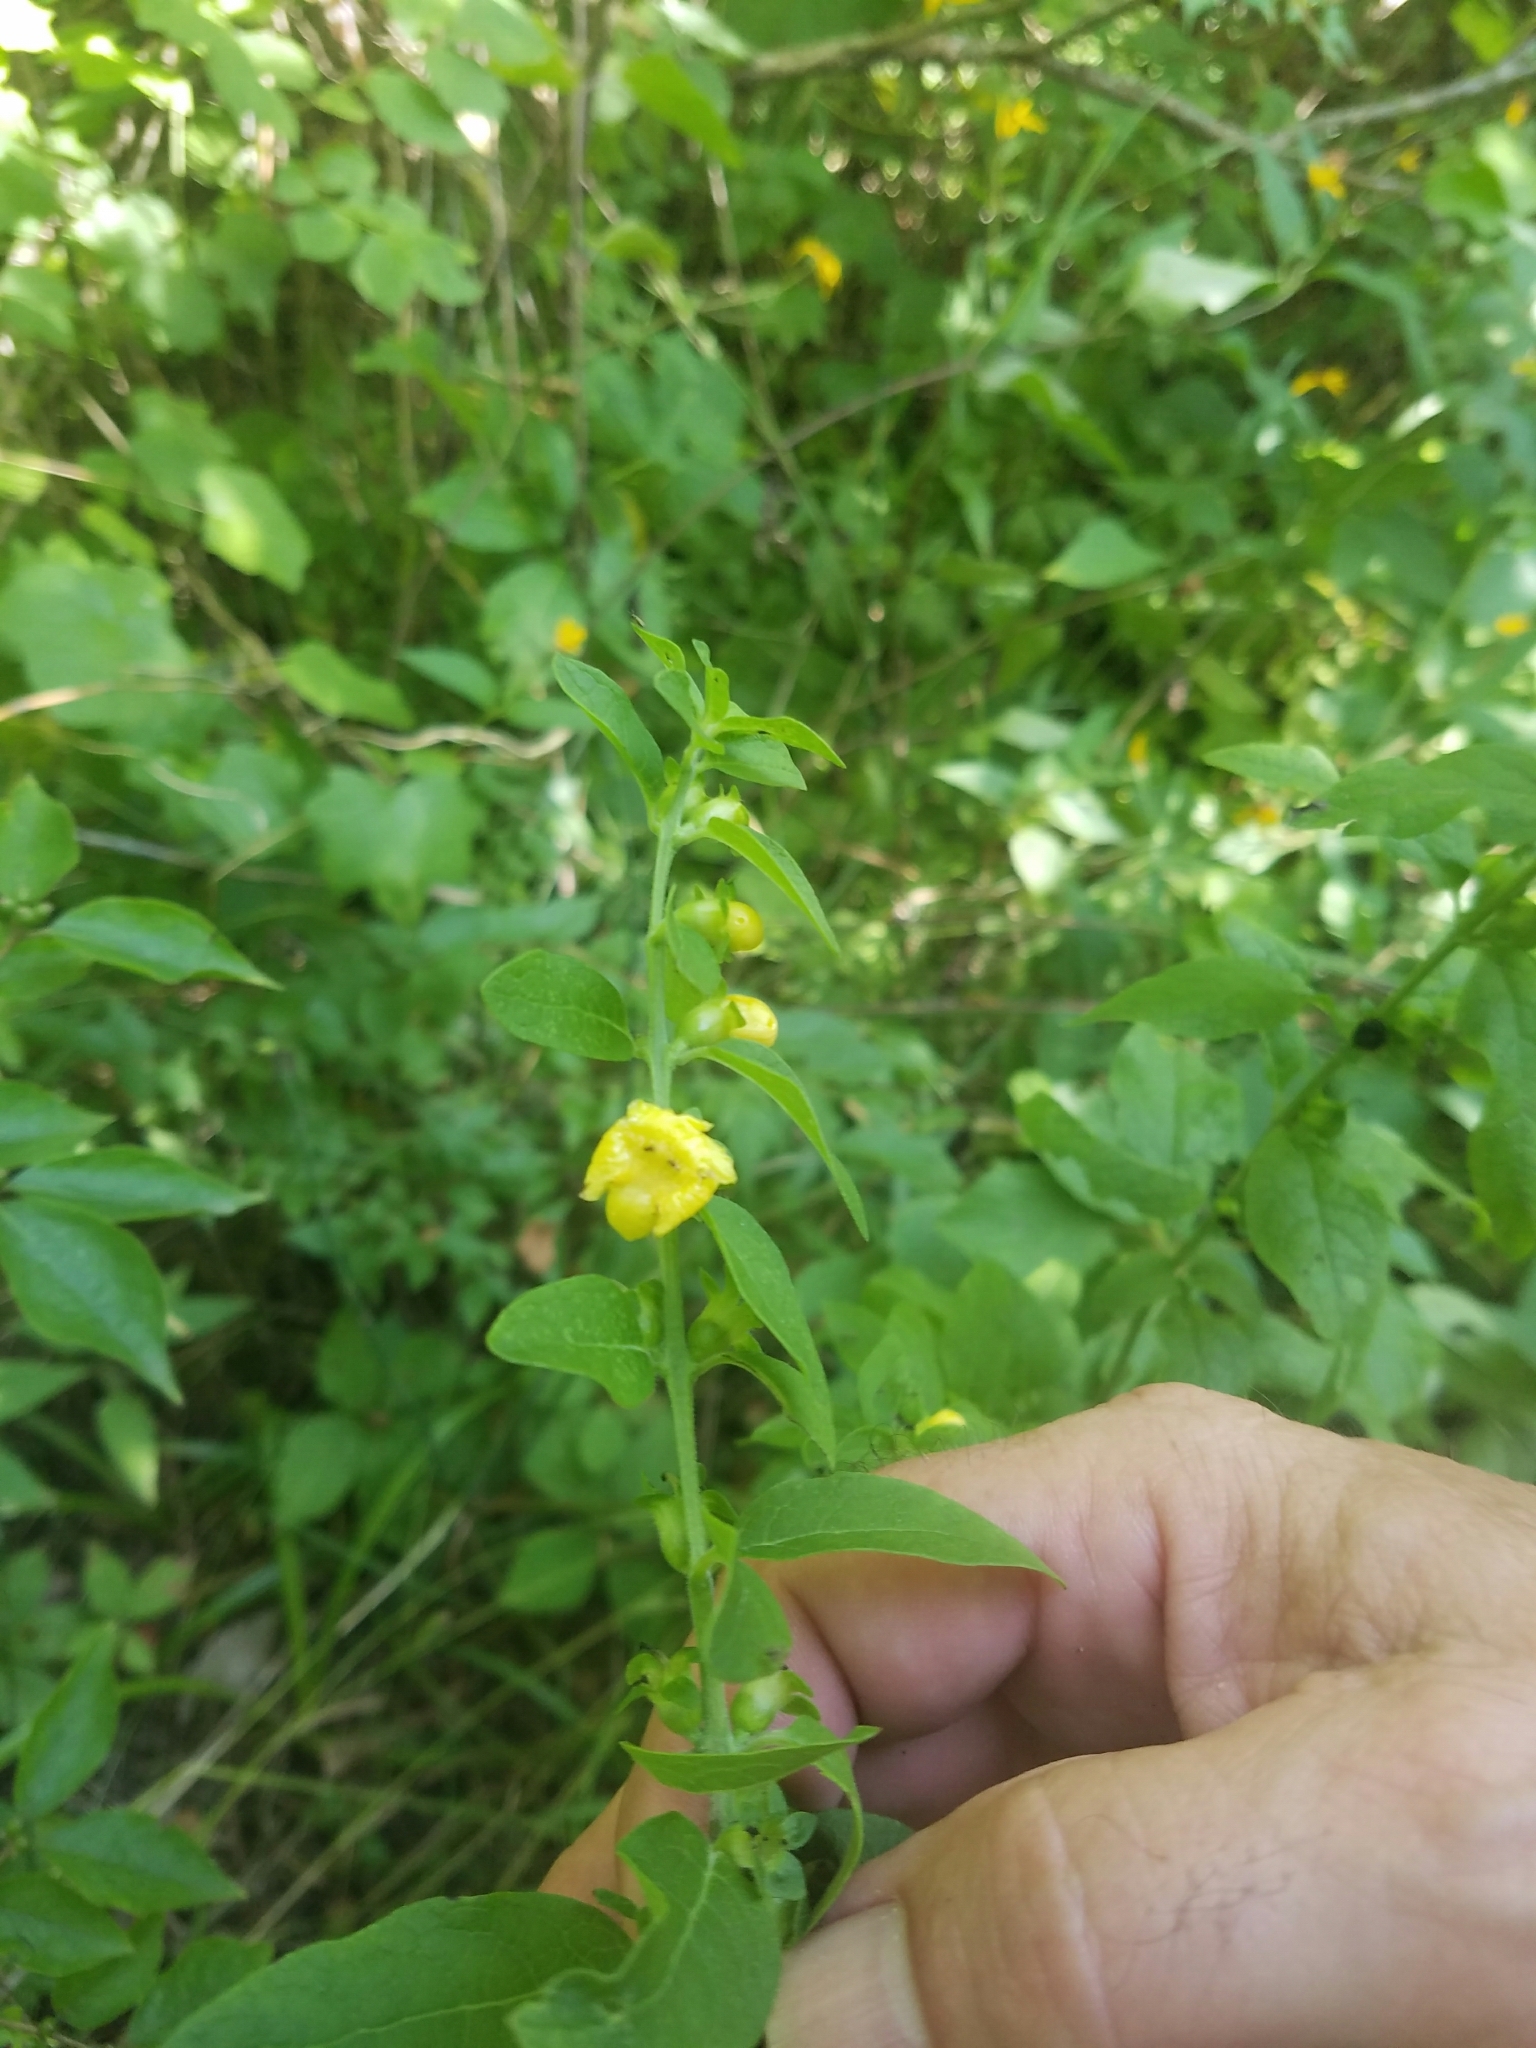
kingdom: Plantae
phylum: Tracheophyta
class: Magnoliopsida
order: Lamiales
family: Orobanchaceae
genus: Dasistoma
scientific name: Dasistoma macrophyllum
